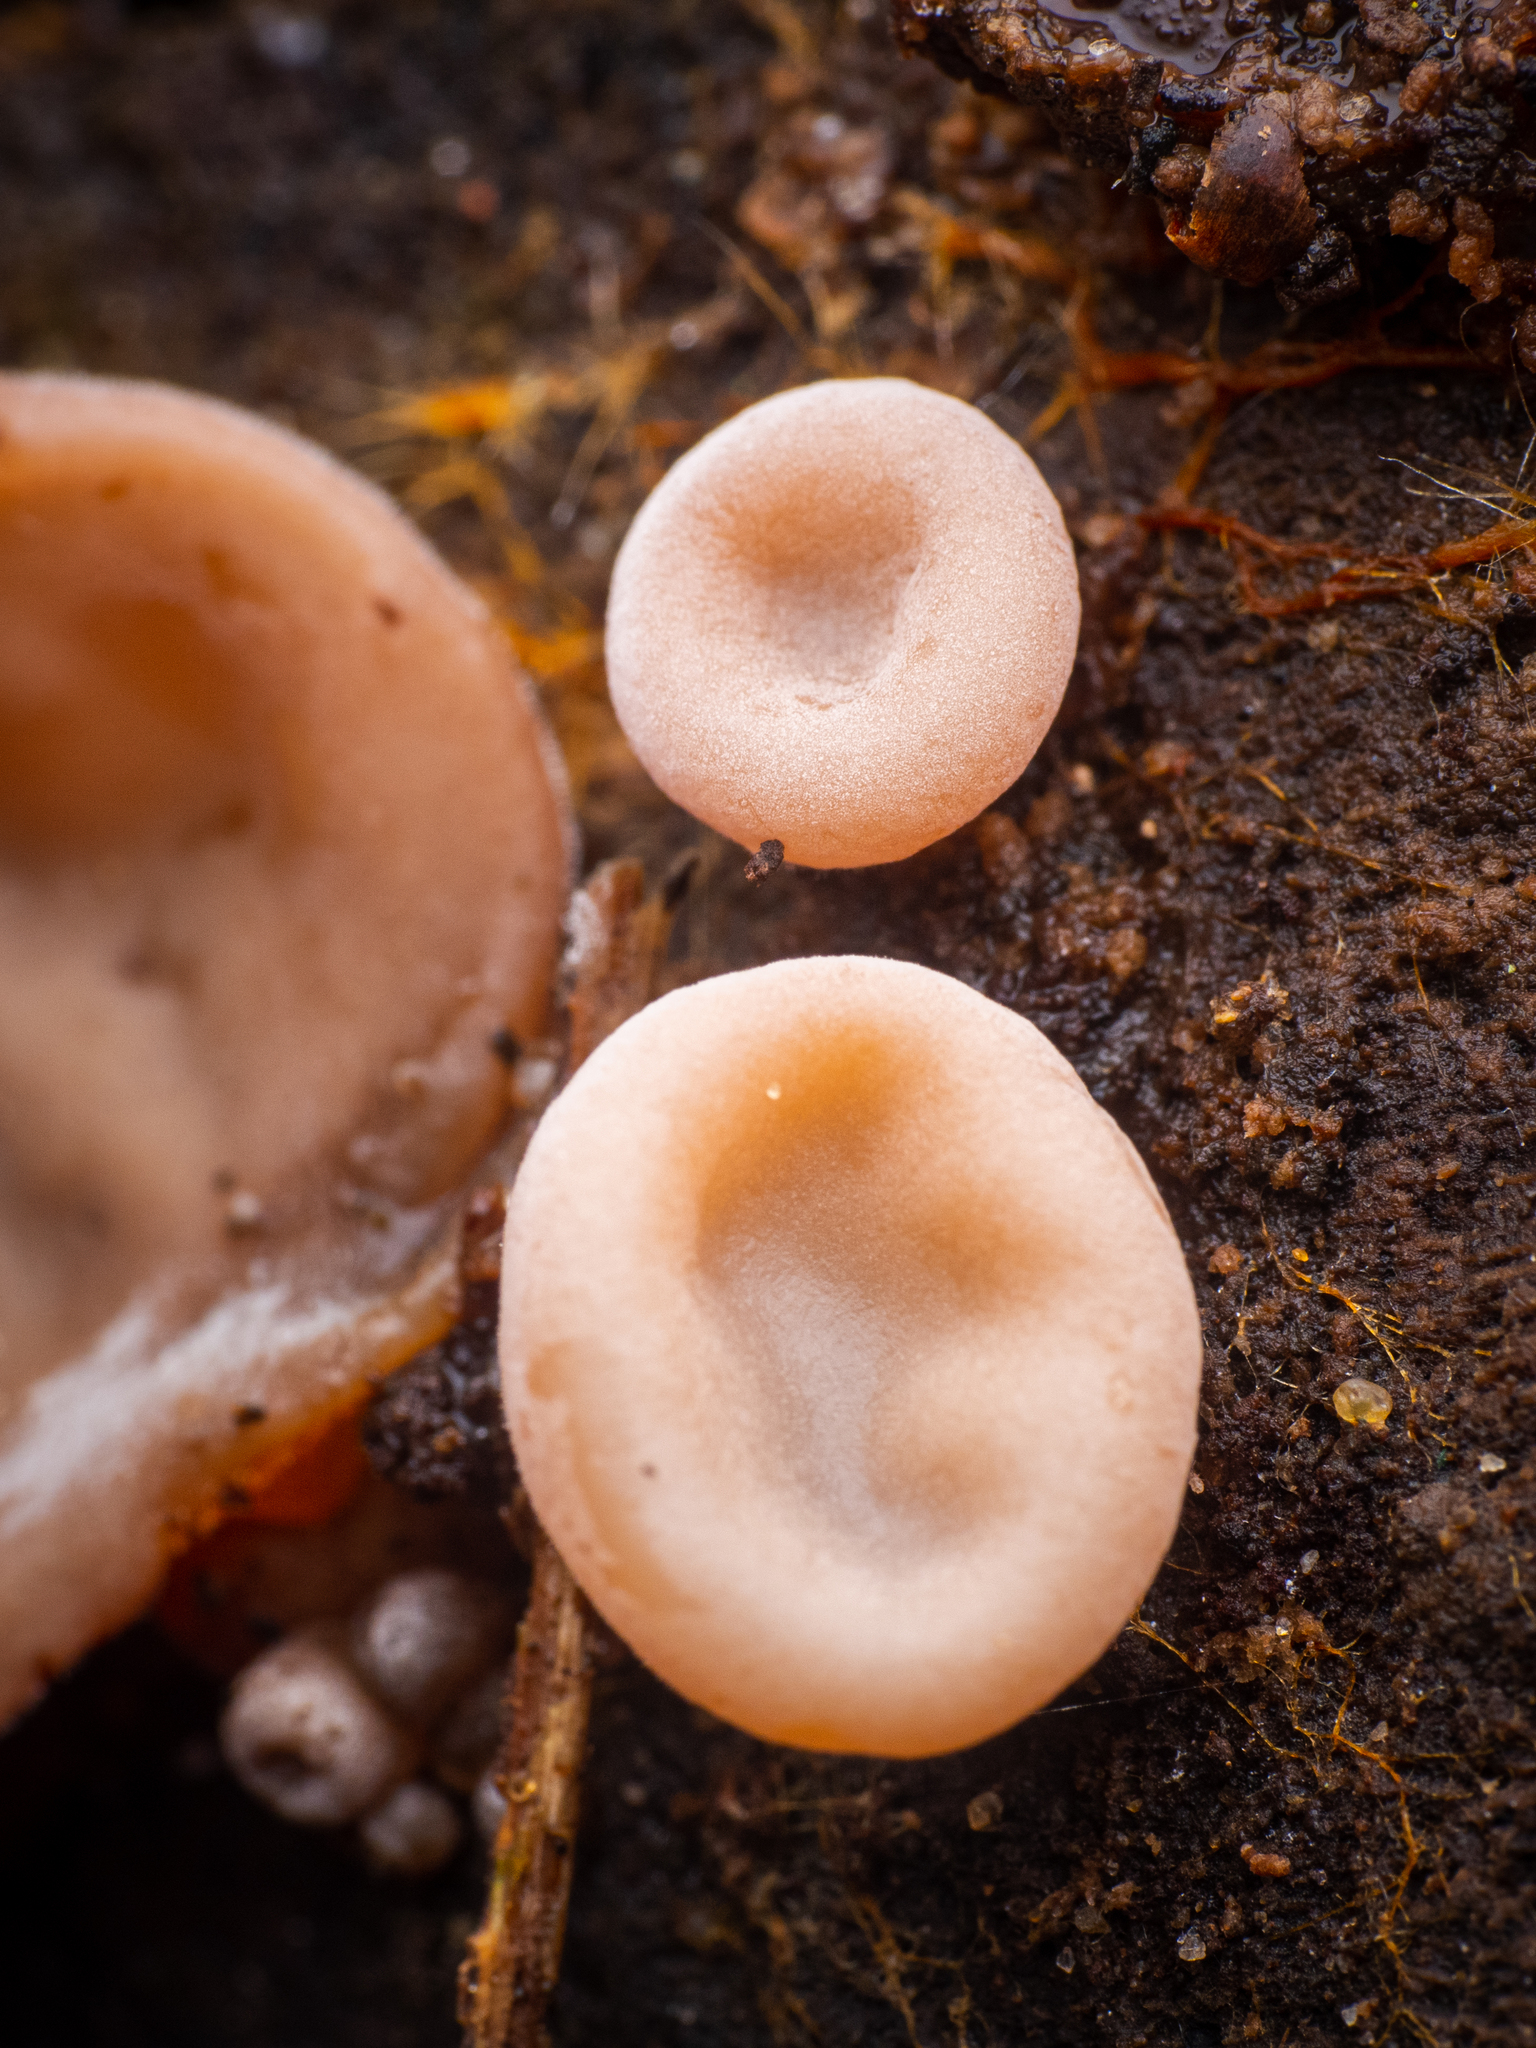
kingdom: Fungi
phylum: Basidiomycota
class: Agaricomycetes
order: Auriculariales
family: Auriculariaceae
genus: Auricularia
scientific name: Auricularia auricula-judae
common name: Jelly ear
